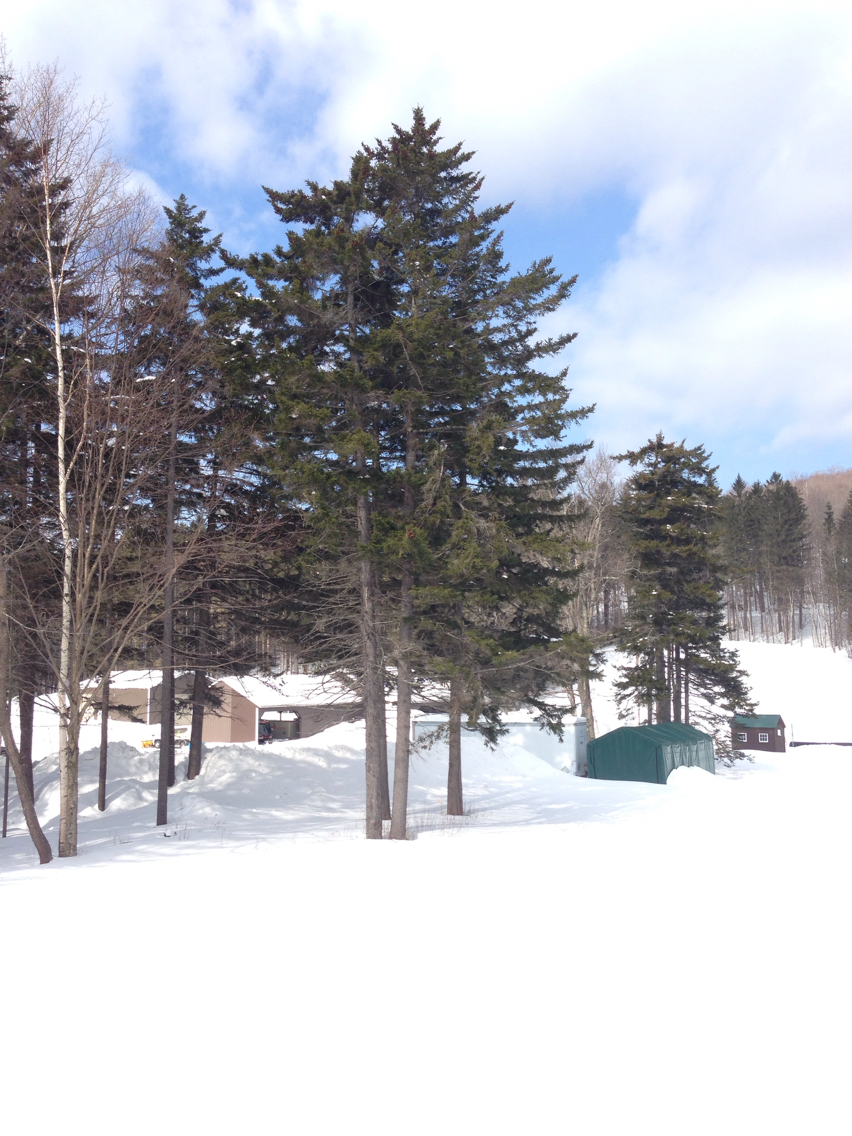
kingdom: Plantae
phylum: Tracheophyta
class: Pinopsida
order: Pinales
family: Pinaceae
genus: Picea
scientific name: Picea rubens
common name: Red spruce
